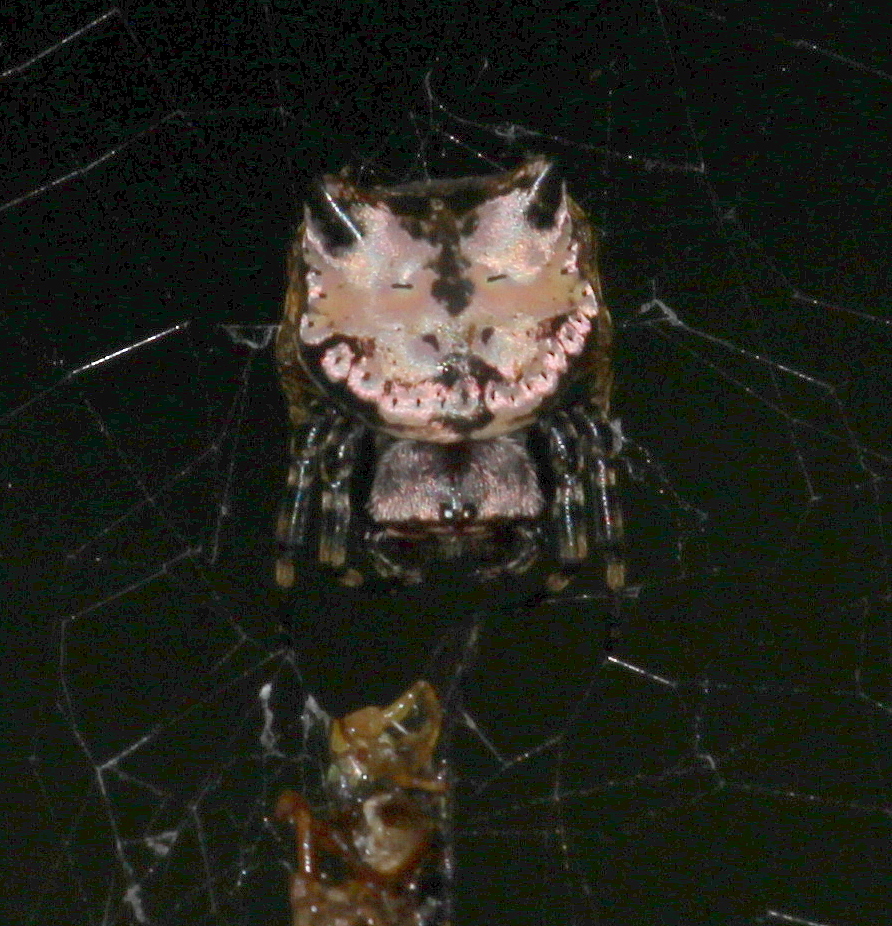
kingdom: Animalia
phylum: Arthropoda
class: Arachnida
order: Araneae
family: Araneidae
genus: Aspidolasius
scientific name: Aspidolasius branicki
